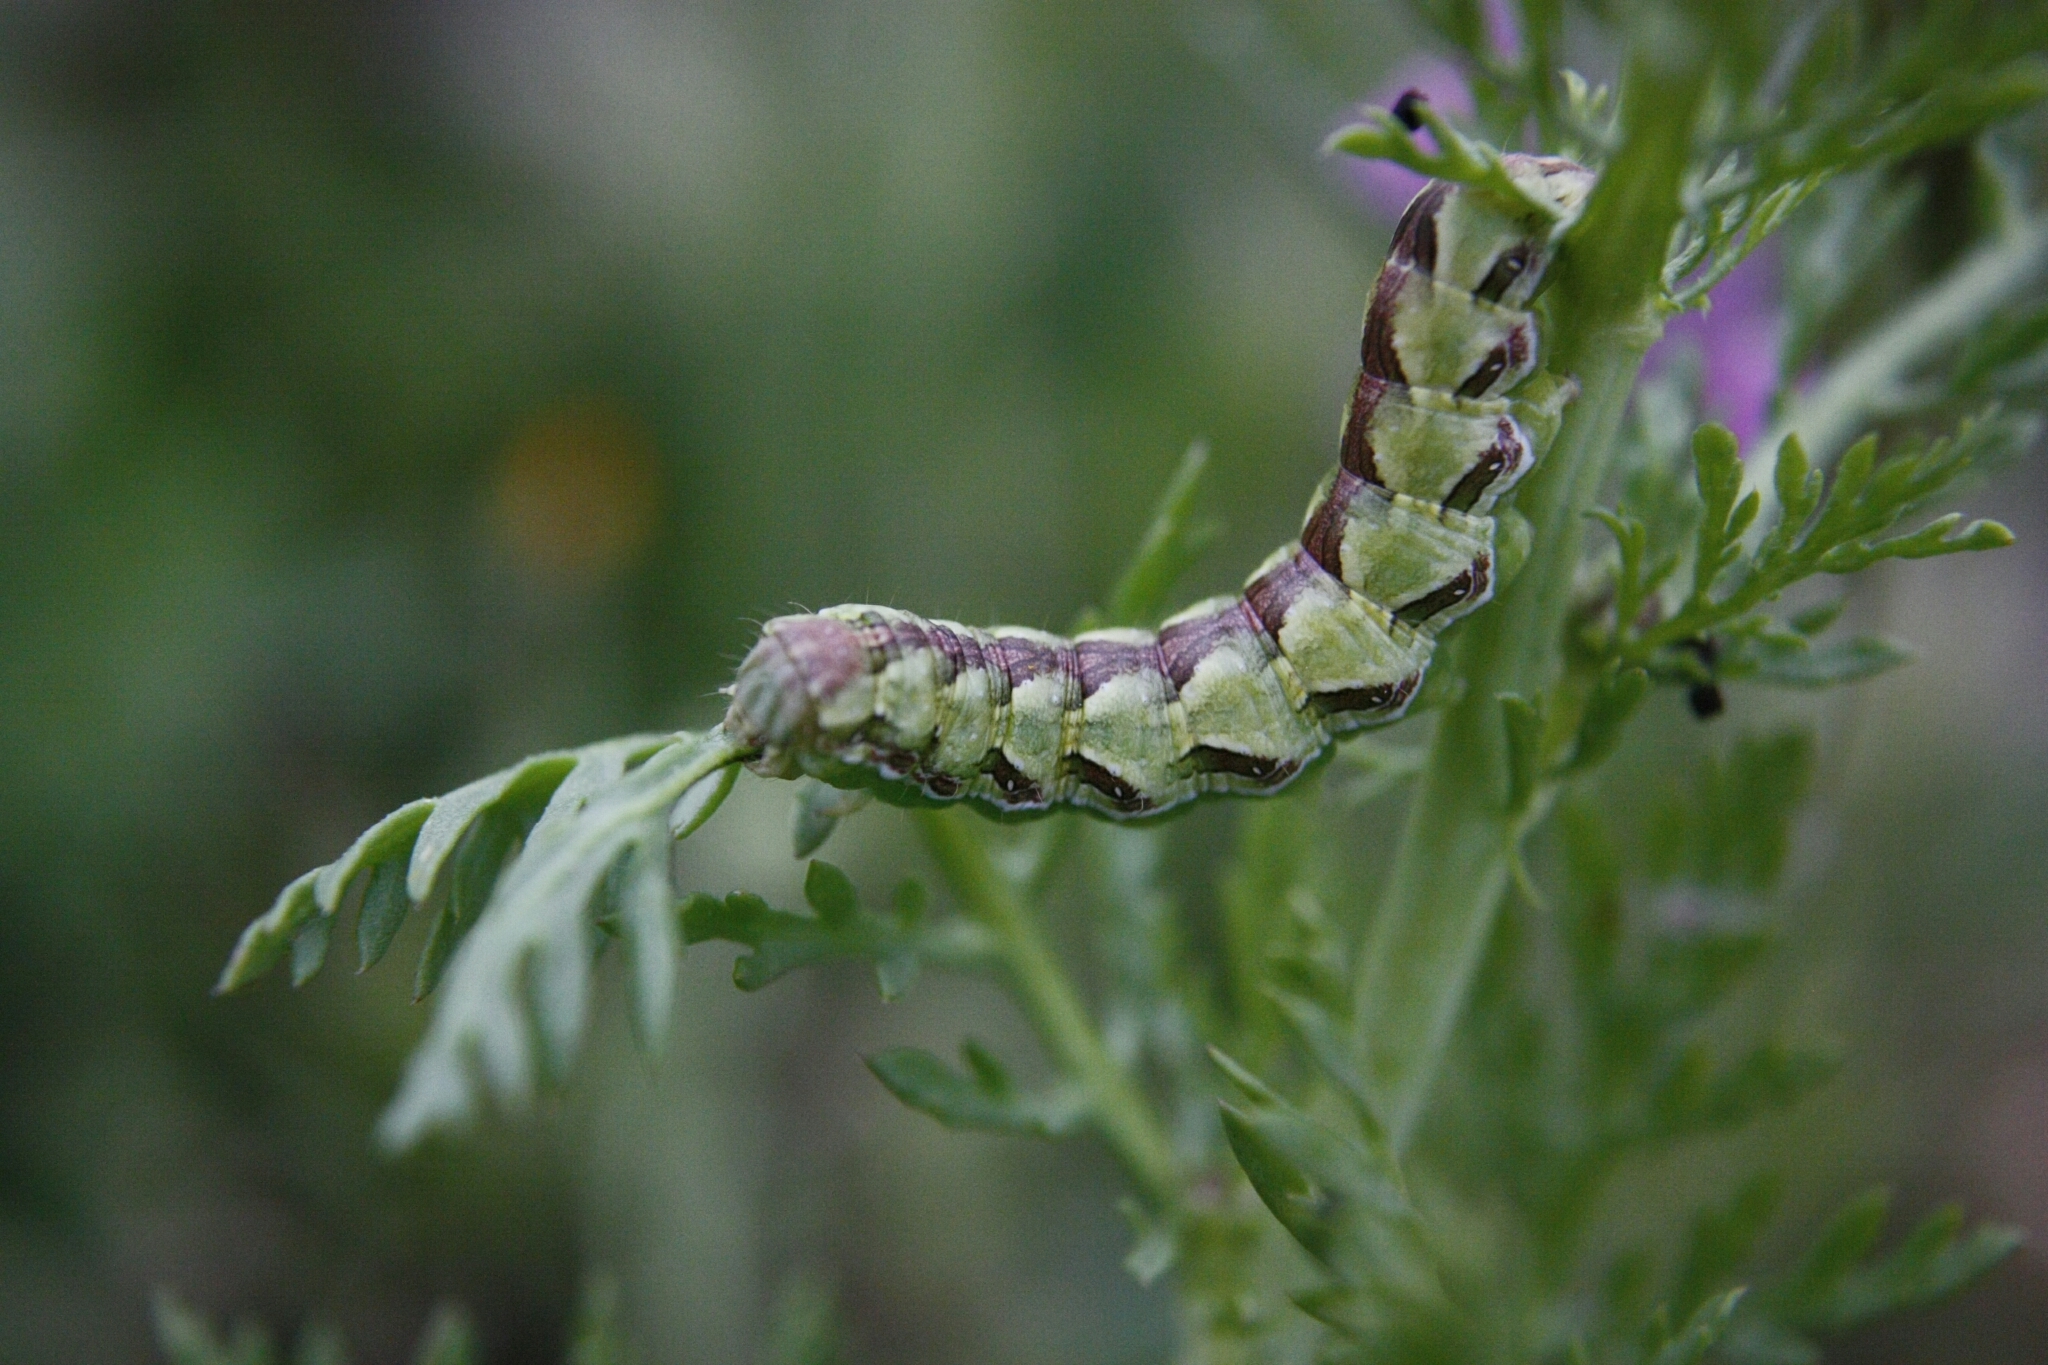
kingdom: Animalia
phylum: Arthropoda
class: Insecta
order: Lepidoptera
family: Noctuidae
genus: Cucullia
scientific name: Cucullia calendulae
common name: Marigold shark
